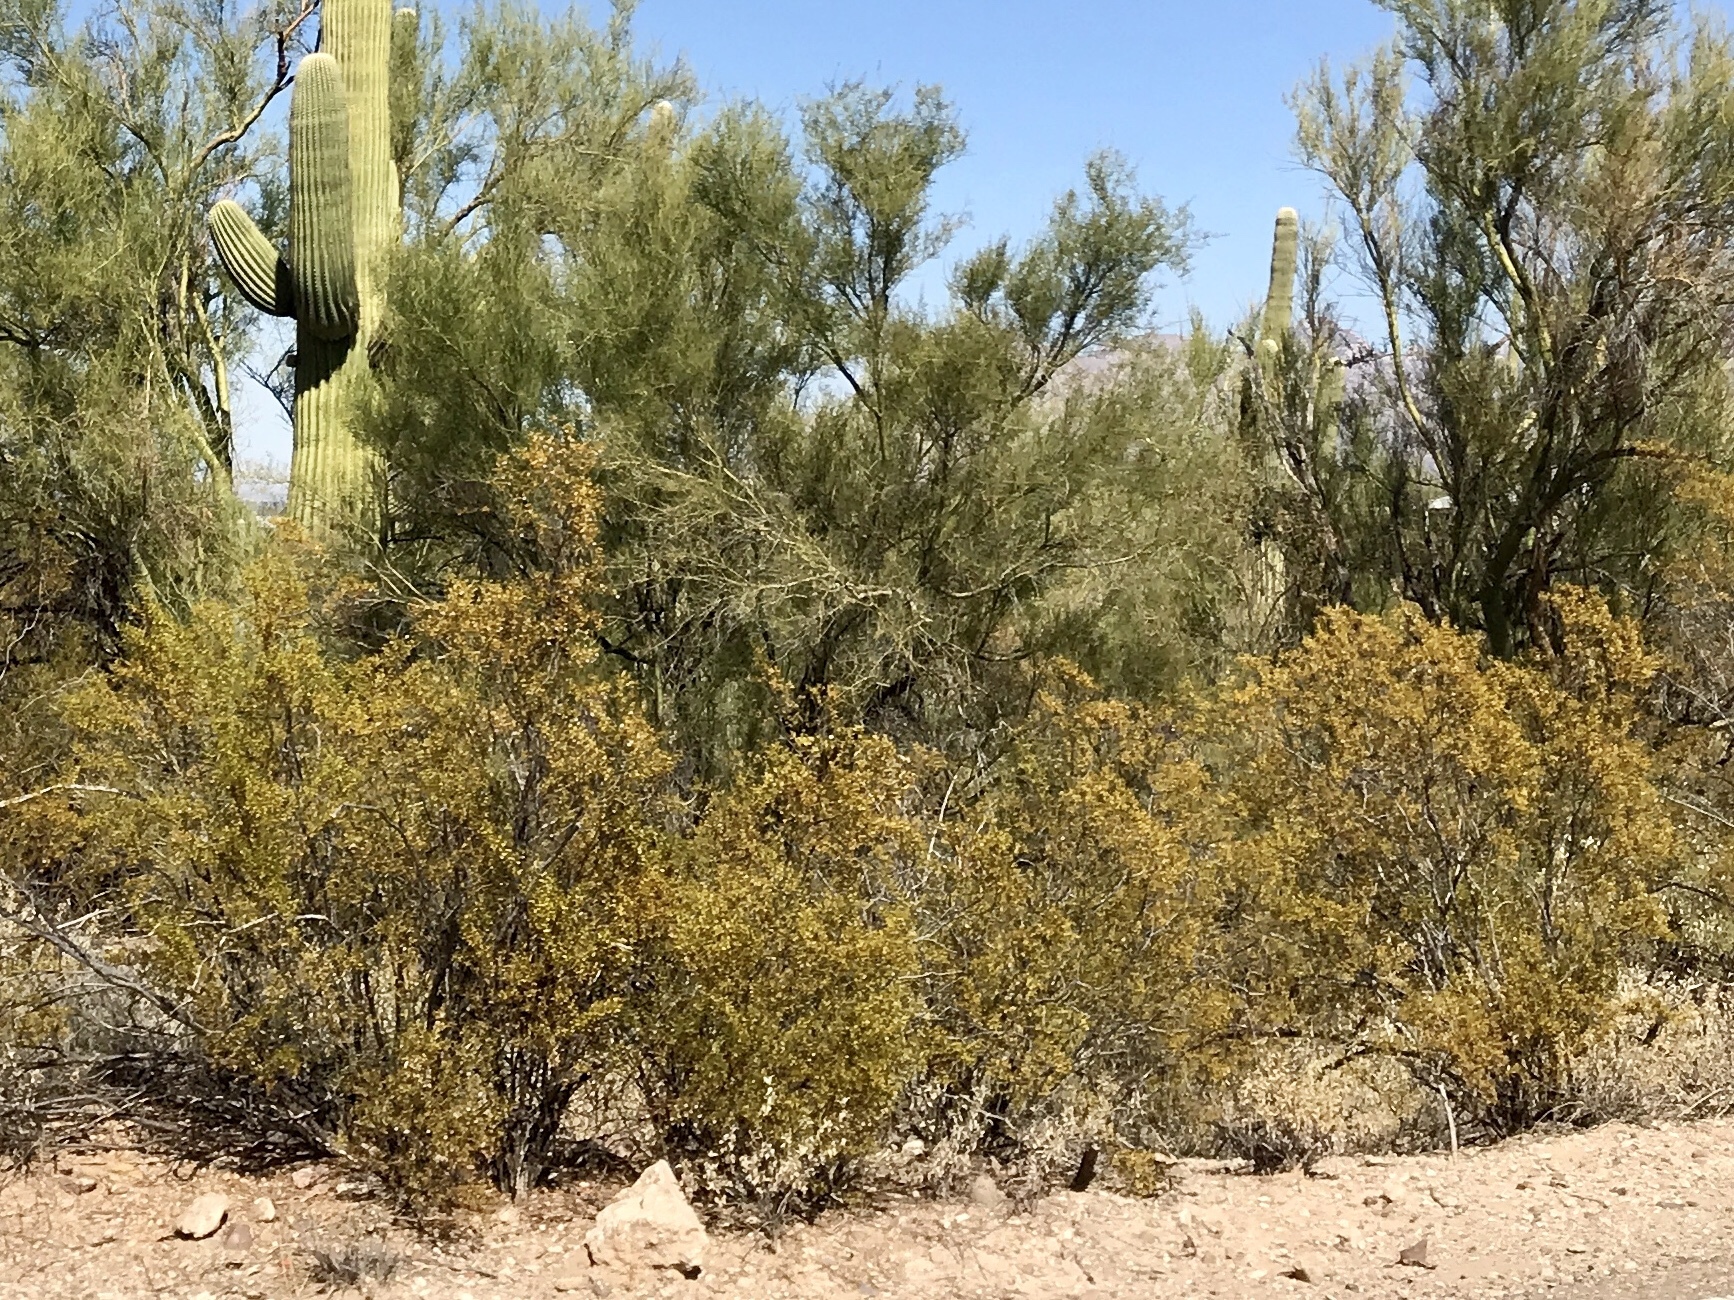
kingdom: Plantae
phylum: Tracheophyta
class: Magnoliopsida
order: Zygophyllales
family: Zygophyllaceae
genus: Larrea
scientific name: Larrea tridentata
